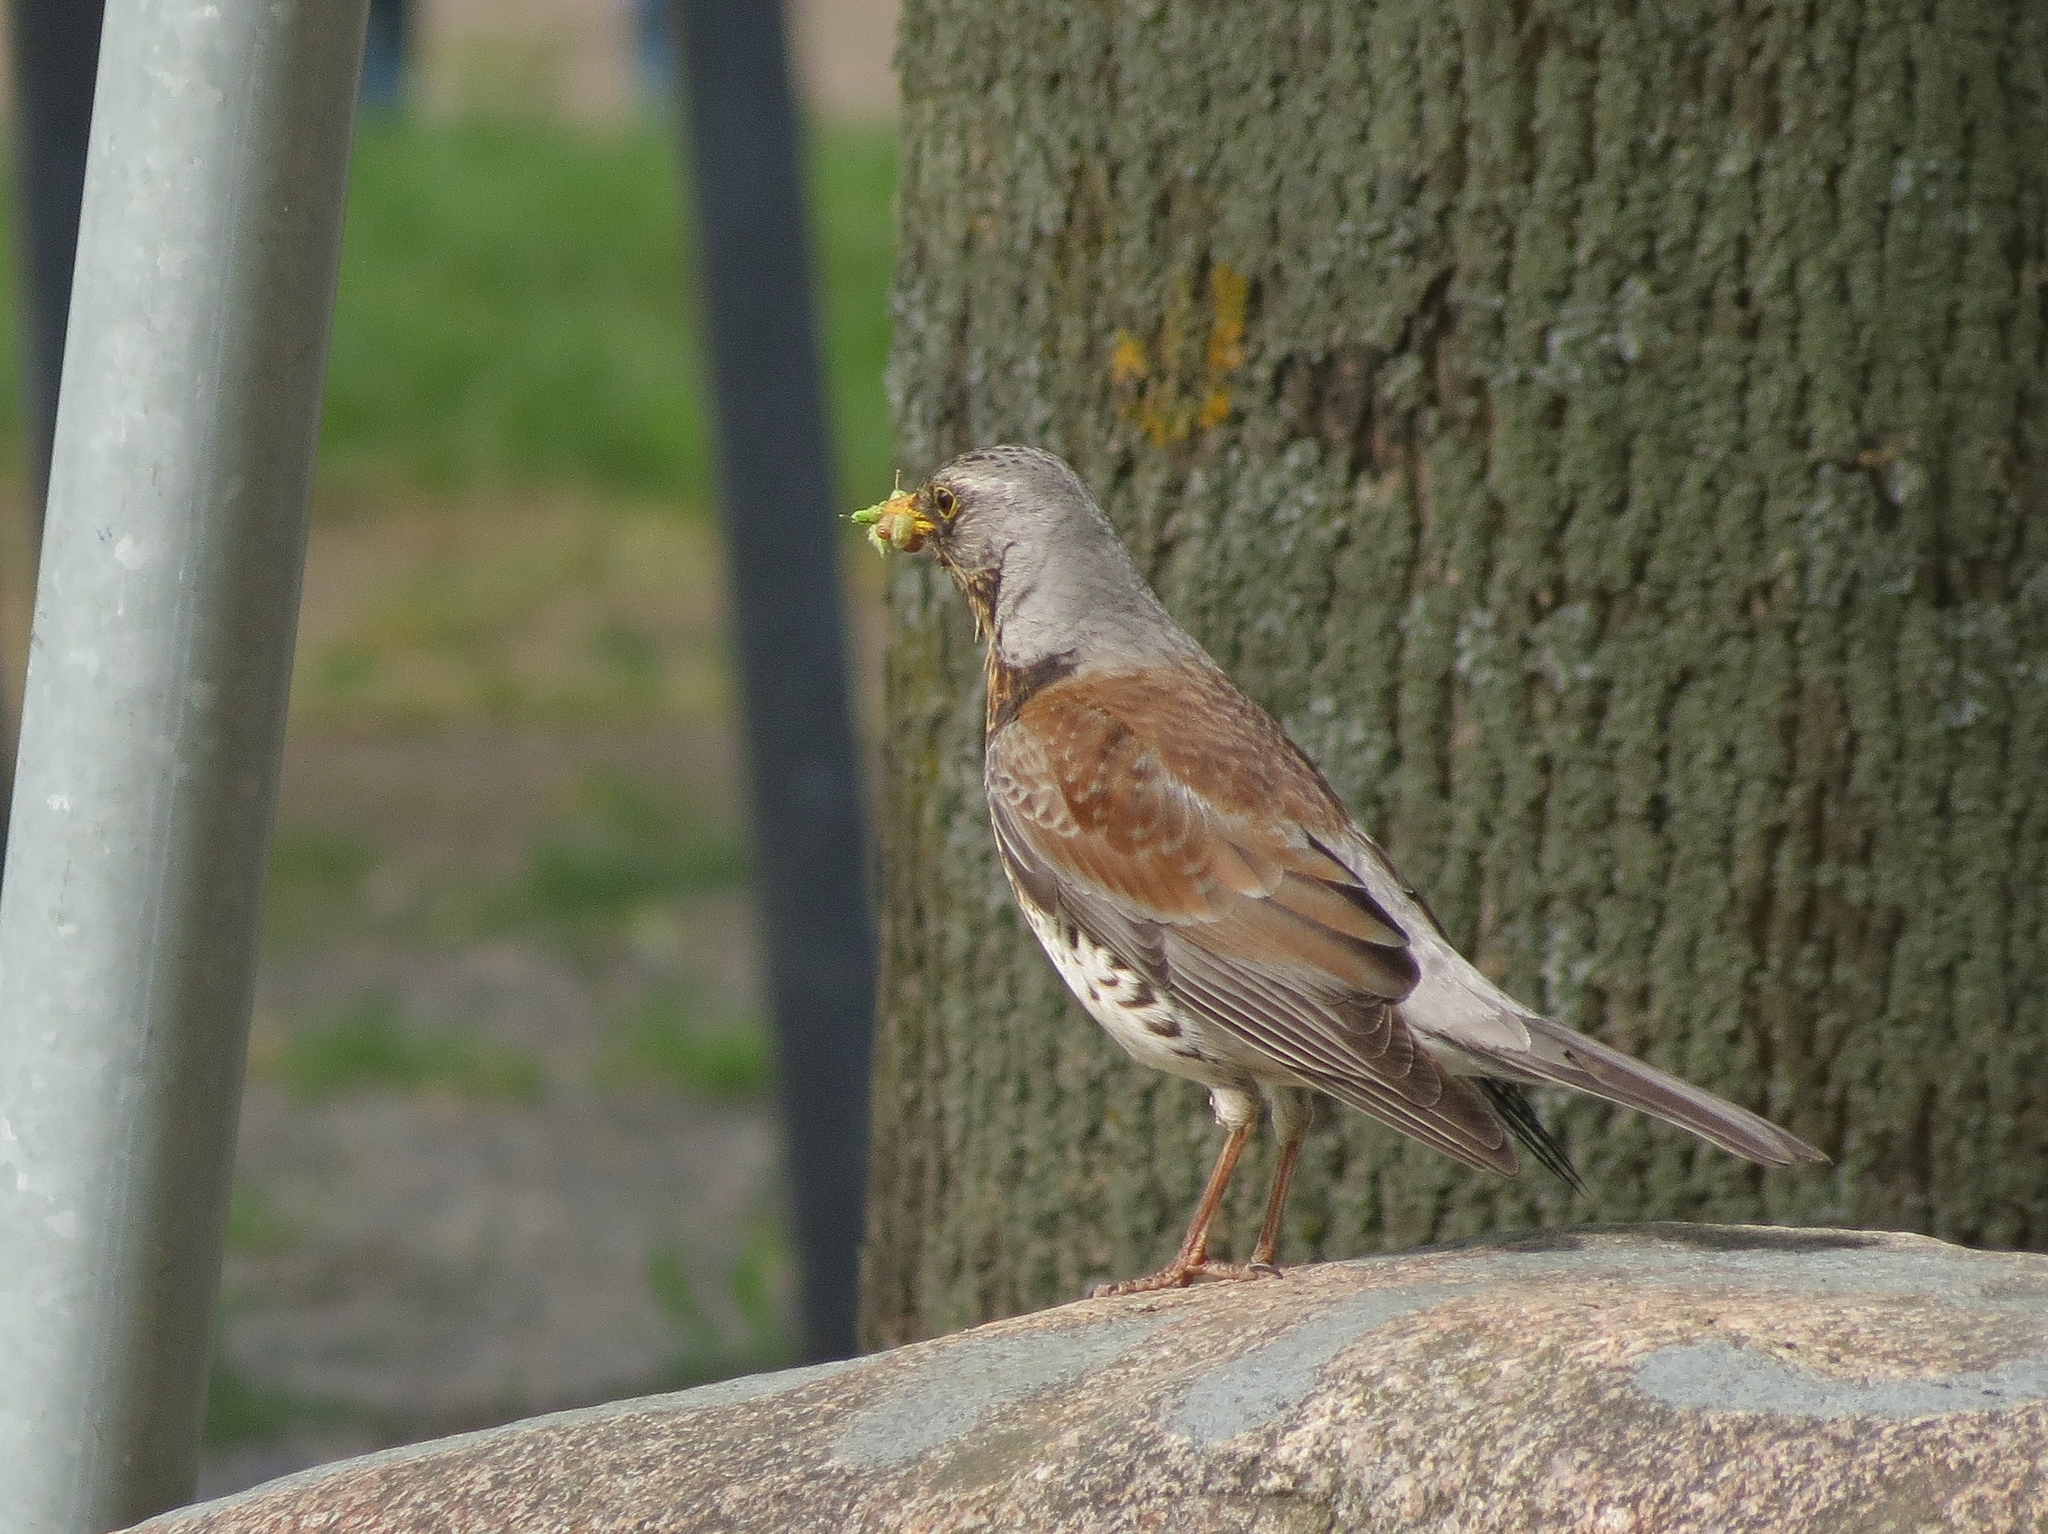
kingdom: Animalia
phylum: Chordata
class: Aves
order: Passeriformes
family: Turdidae
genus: Turdus
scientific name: Turdus pilaris
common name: Fieldfare
